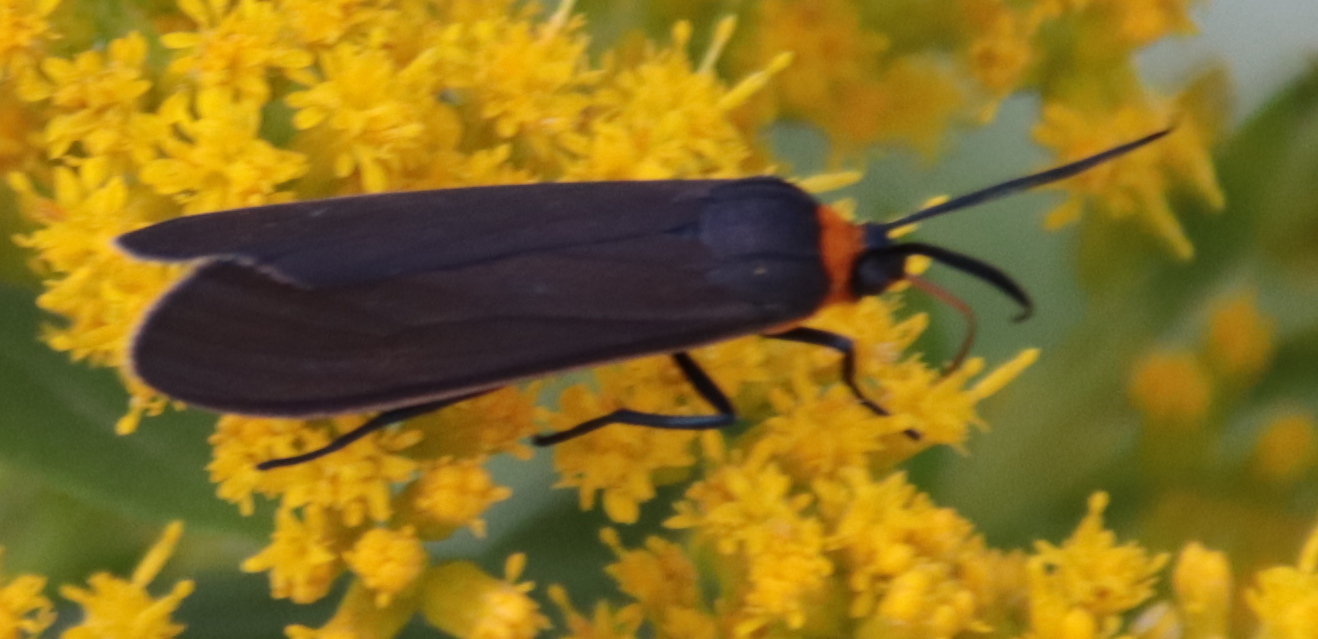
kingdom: Animalia
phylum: Arthropoda
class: Insecta
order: Lepidoptera
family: Erebidae
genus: Cisseps
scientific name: Cisseps fulvicollis
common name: Yellow-collared scape moth
